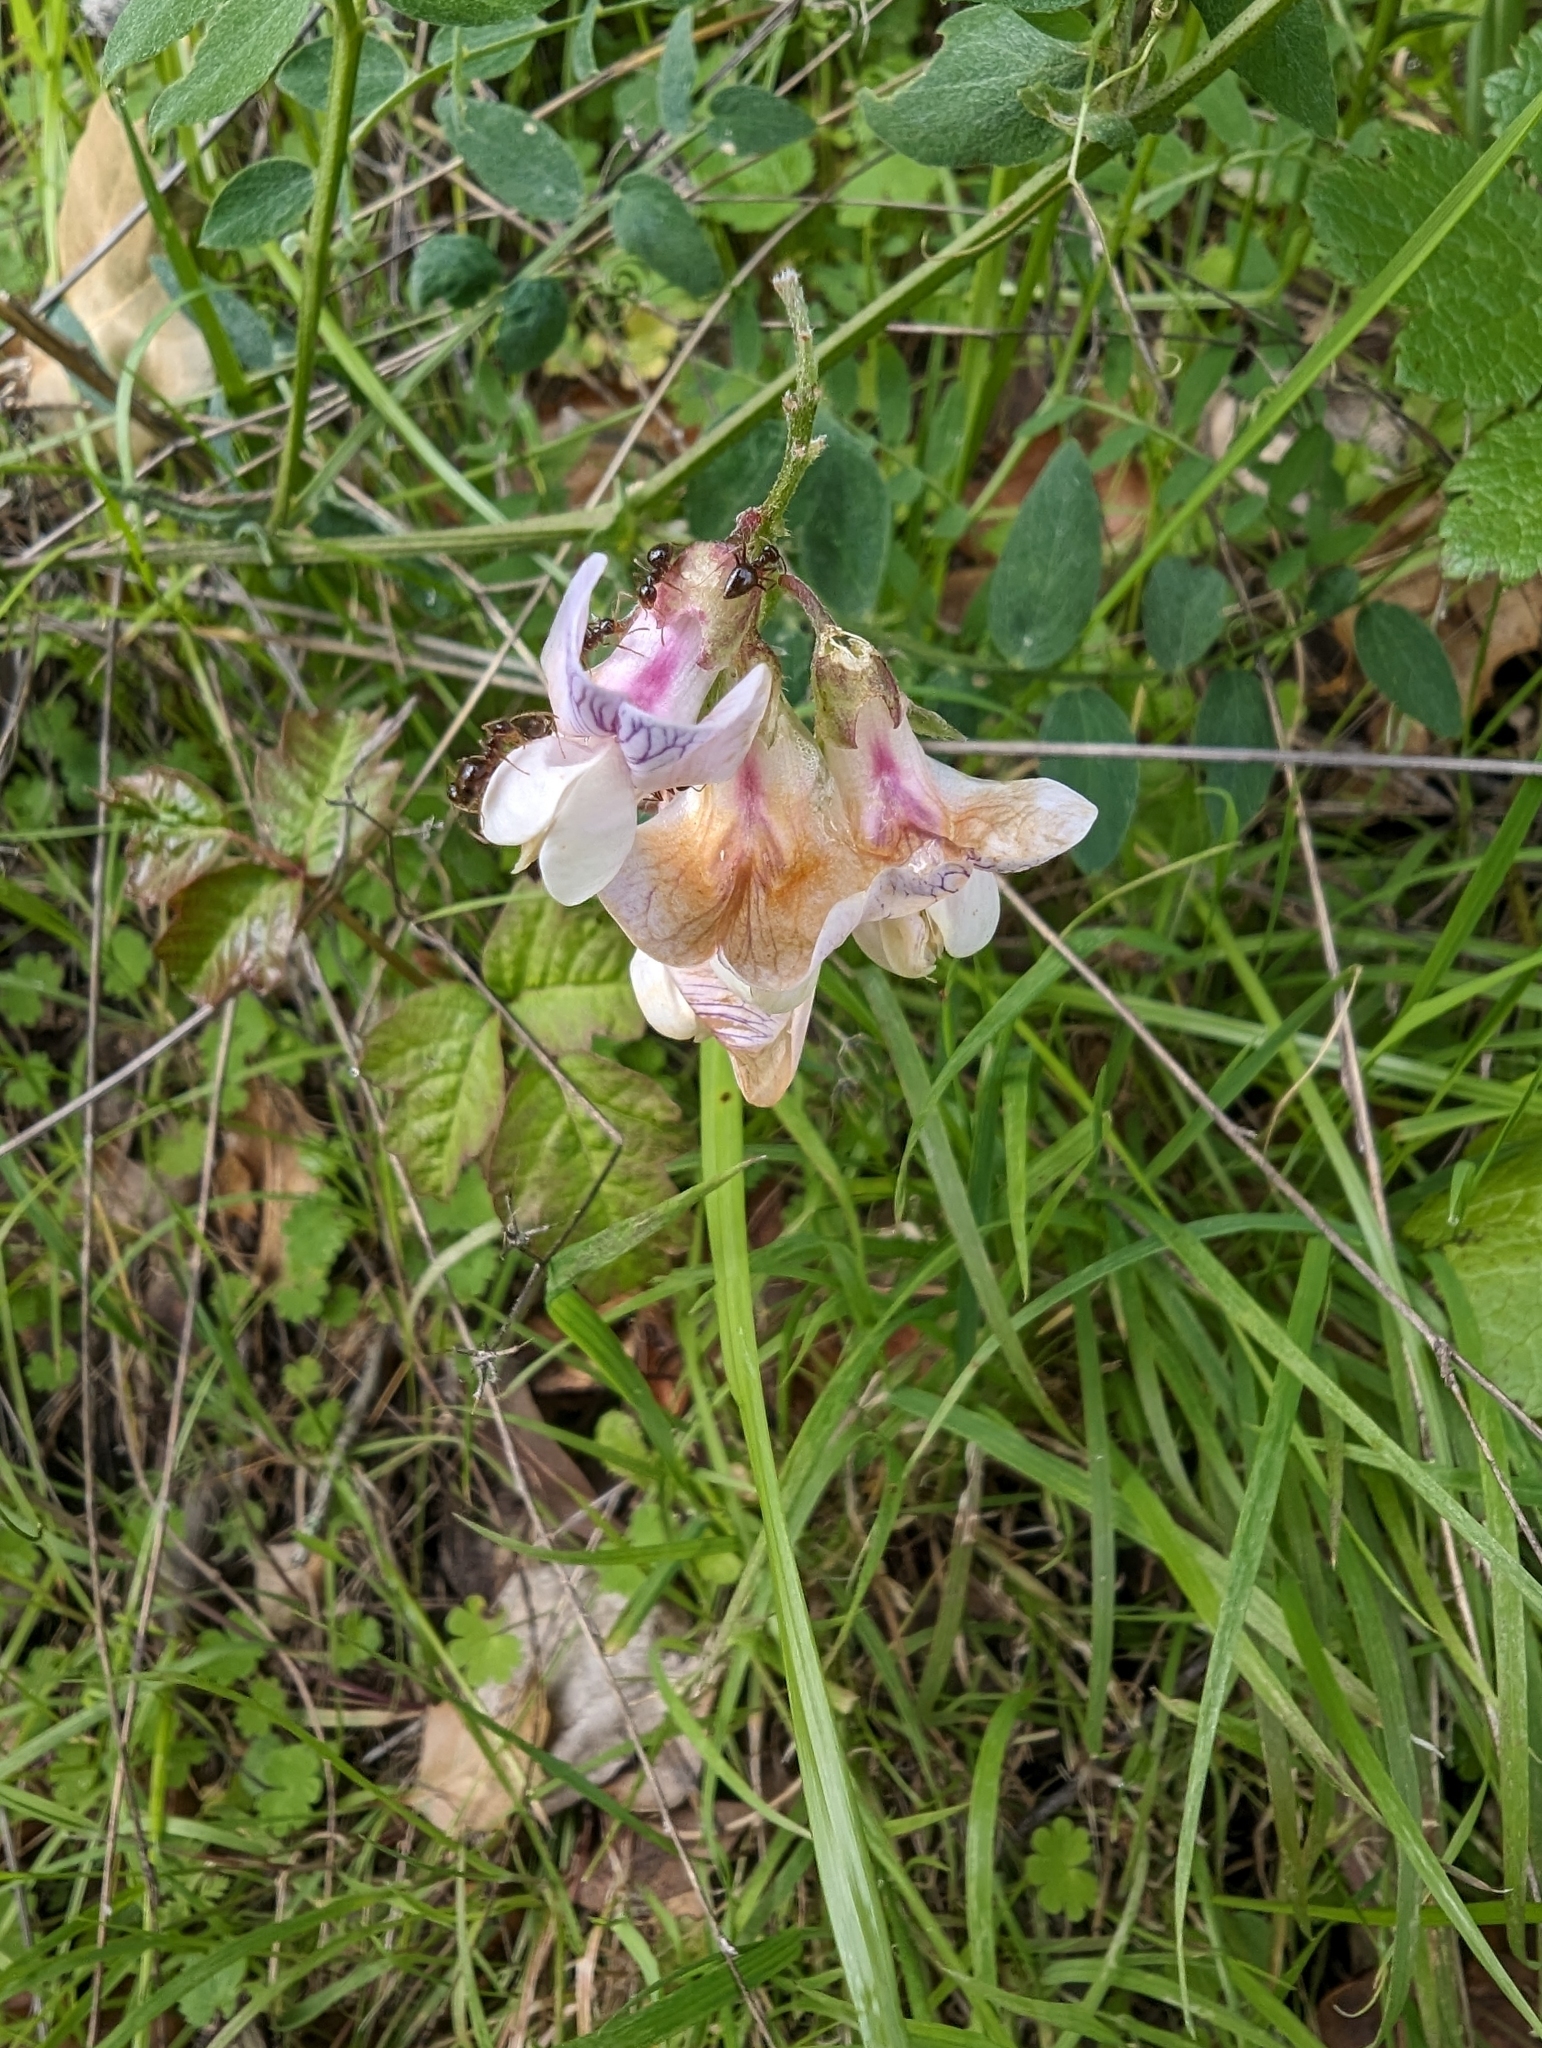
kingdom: Plantae
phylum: Tracheophyta
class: Magnoliopsida
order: Fabales
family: Fabaceae
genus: Lathyrus
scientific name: Lathyrus vestitus
